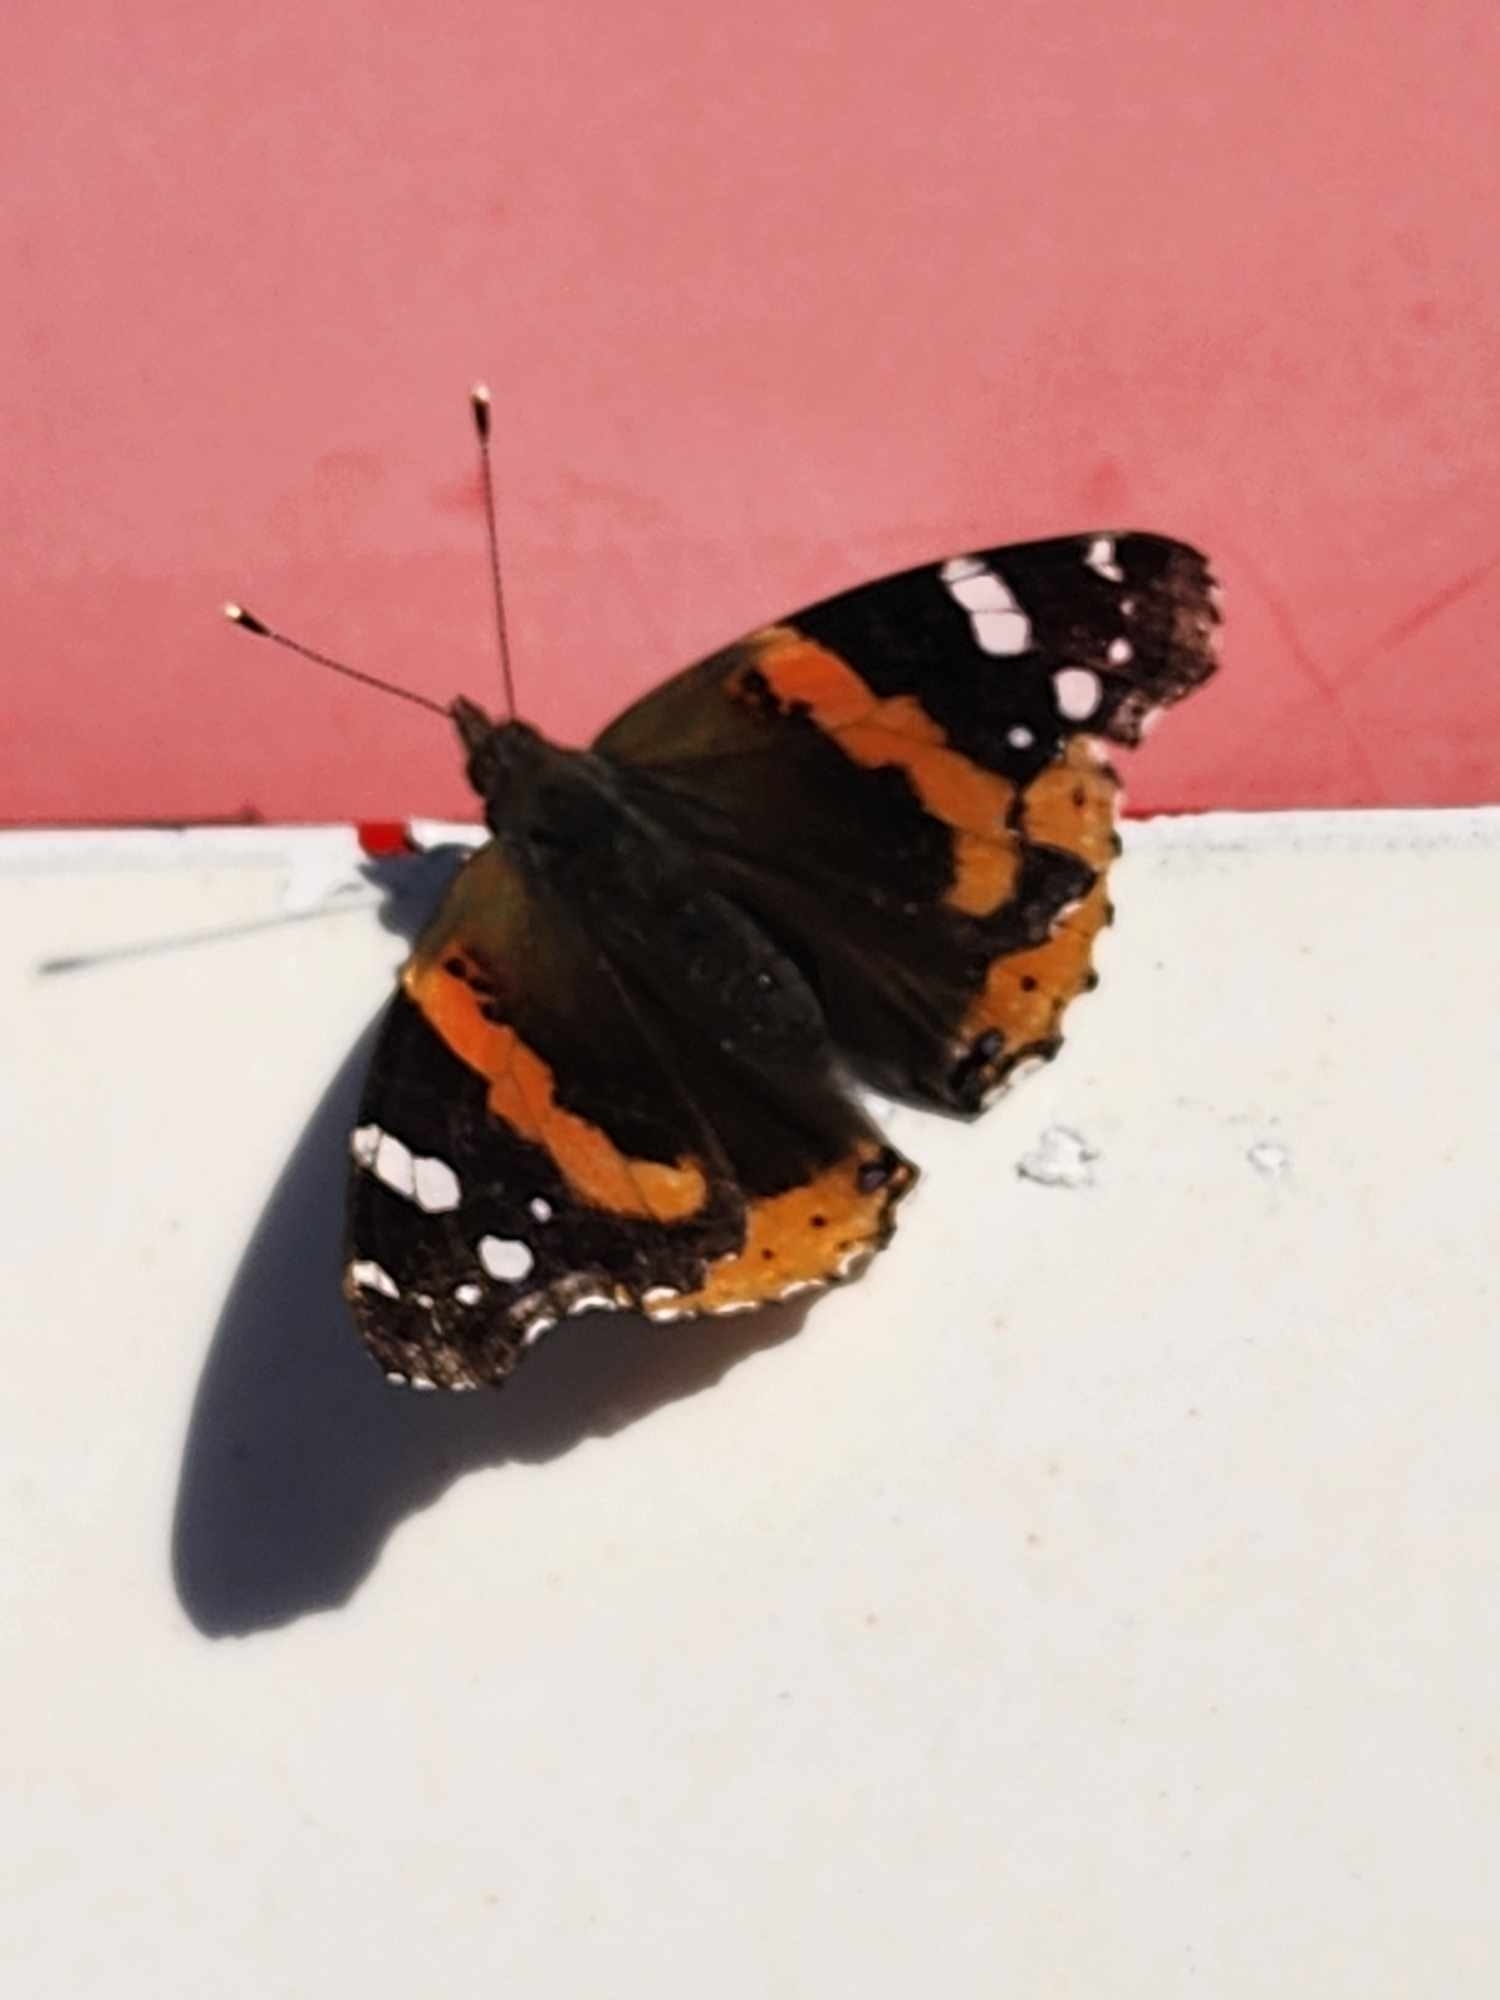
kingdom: Animalia
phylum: Arthropoda
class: Insecta
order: Lepidoptera
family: Nymphalidae
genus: Vanessa
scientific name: Vanessa atalanta
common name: Red admiral
